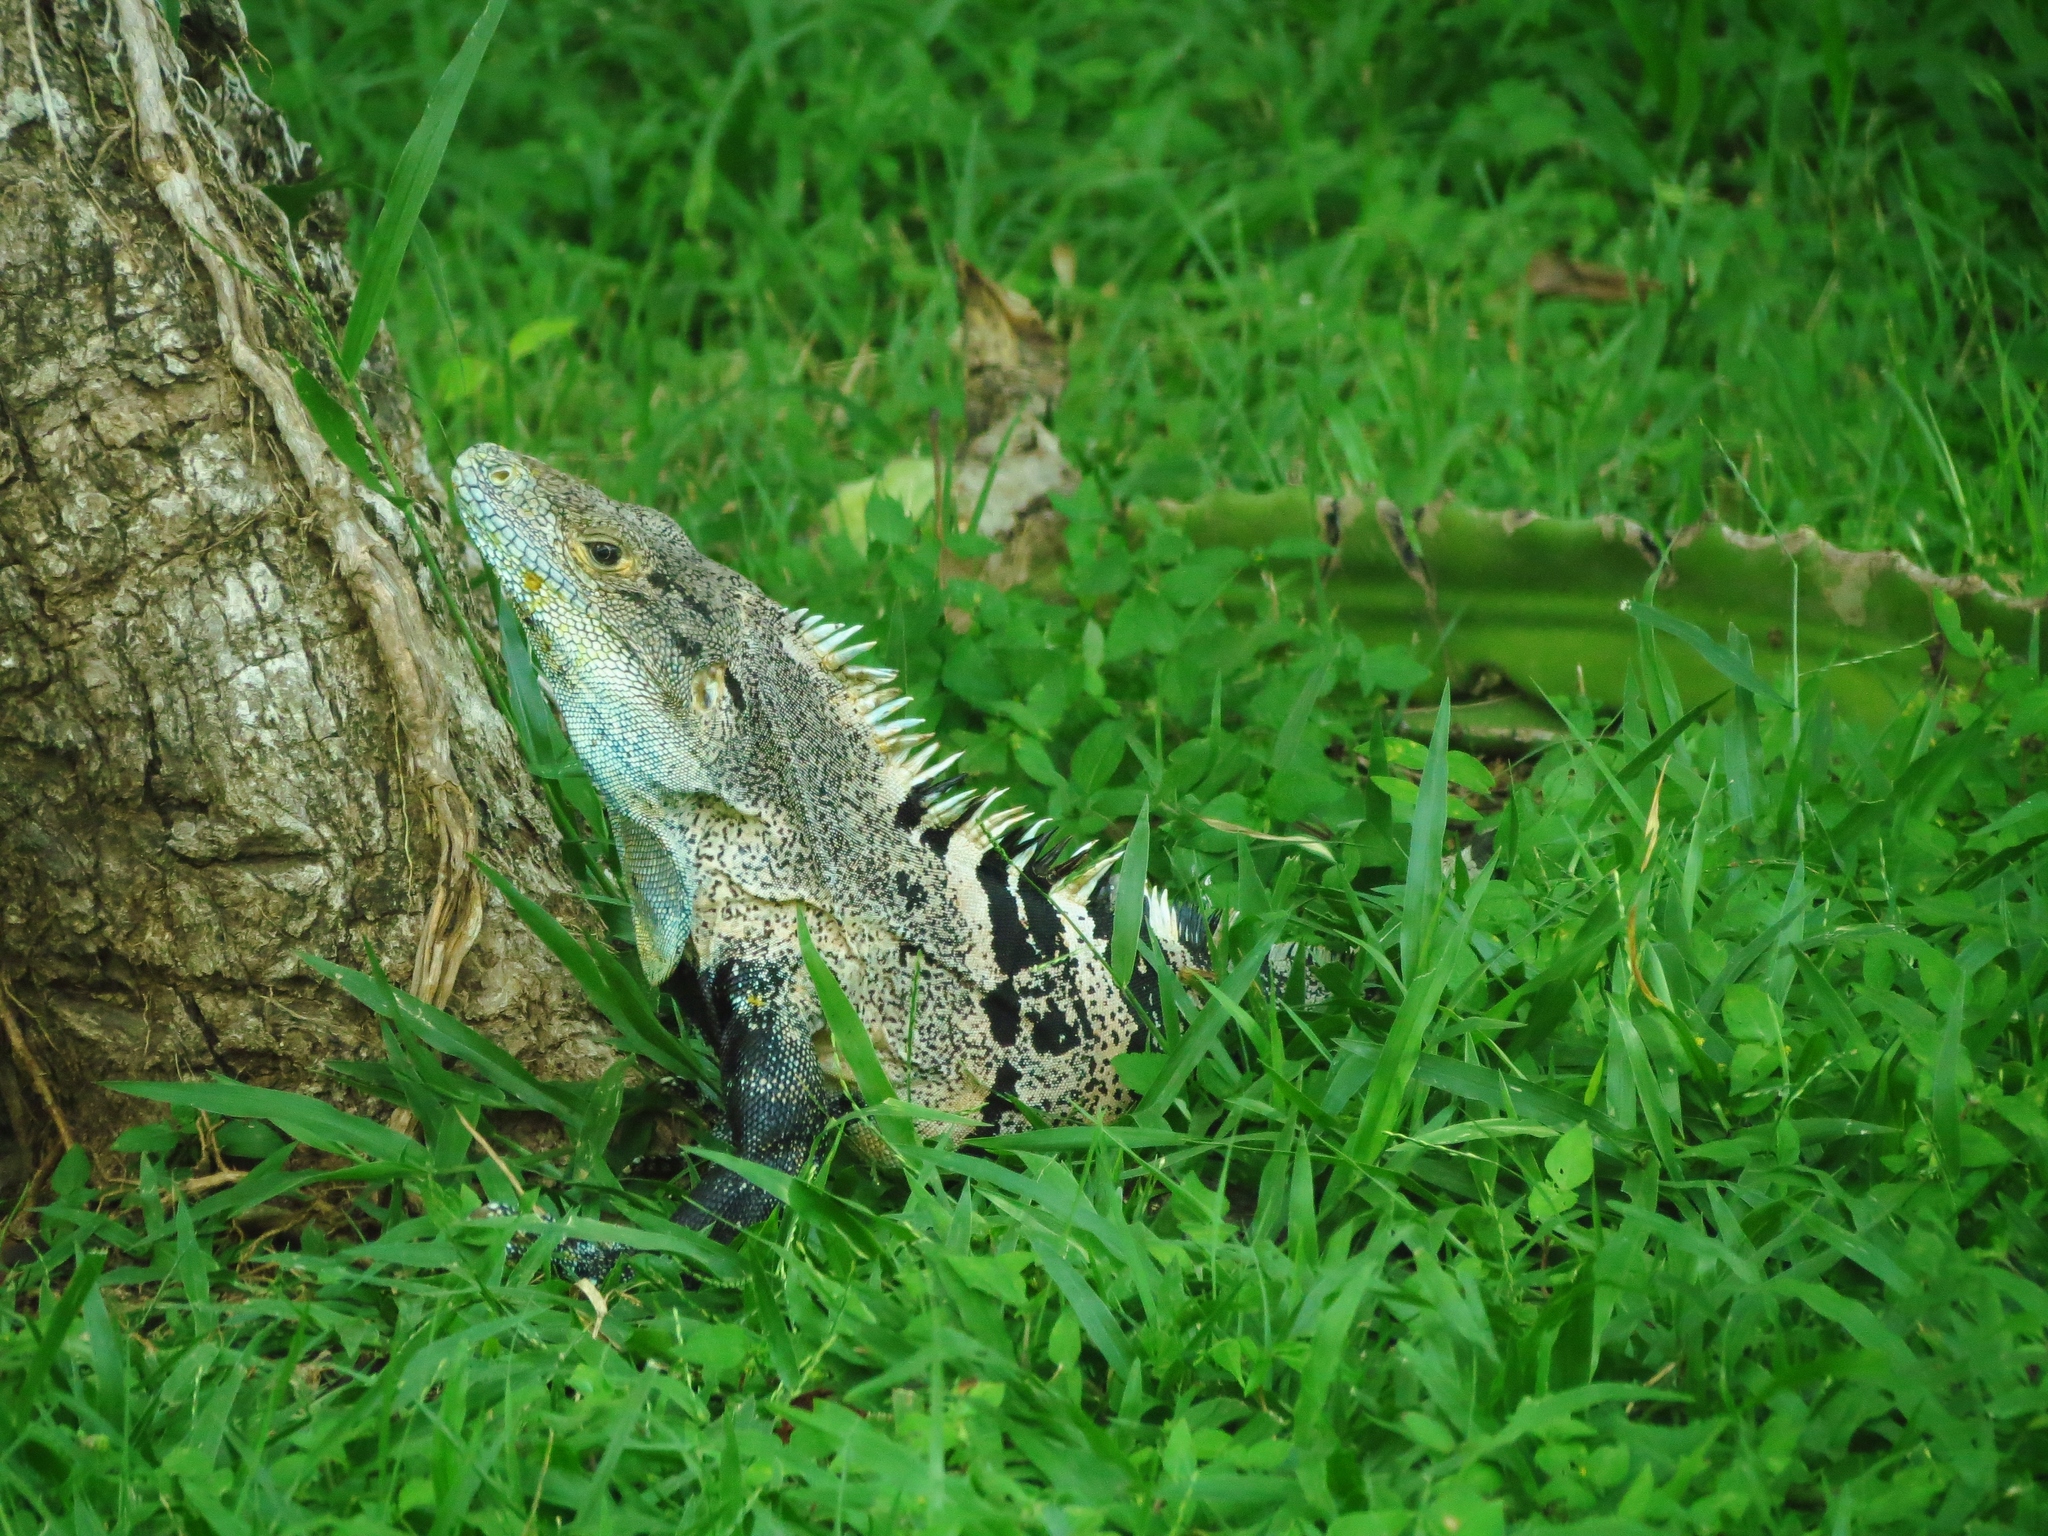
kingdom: Animalia
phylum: Chordata
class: Squamata
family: Iguanidae
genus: Ctenosaura
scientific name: Ctenosaura similis
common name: Black spiny-tailed iguana
